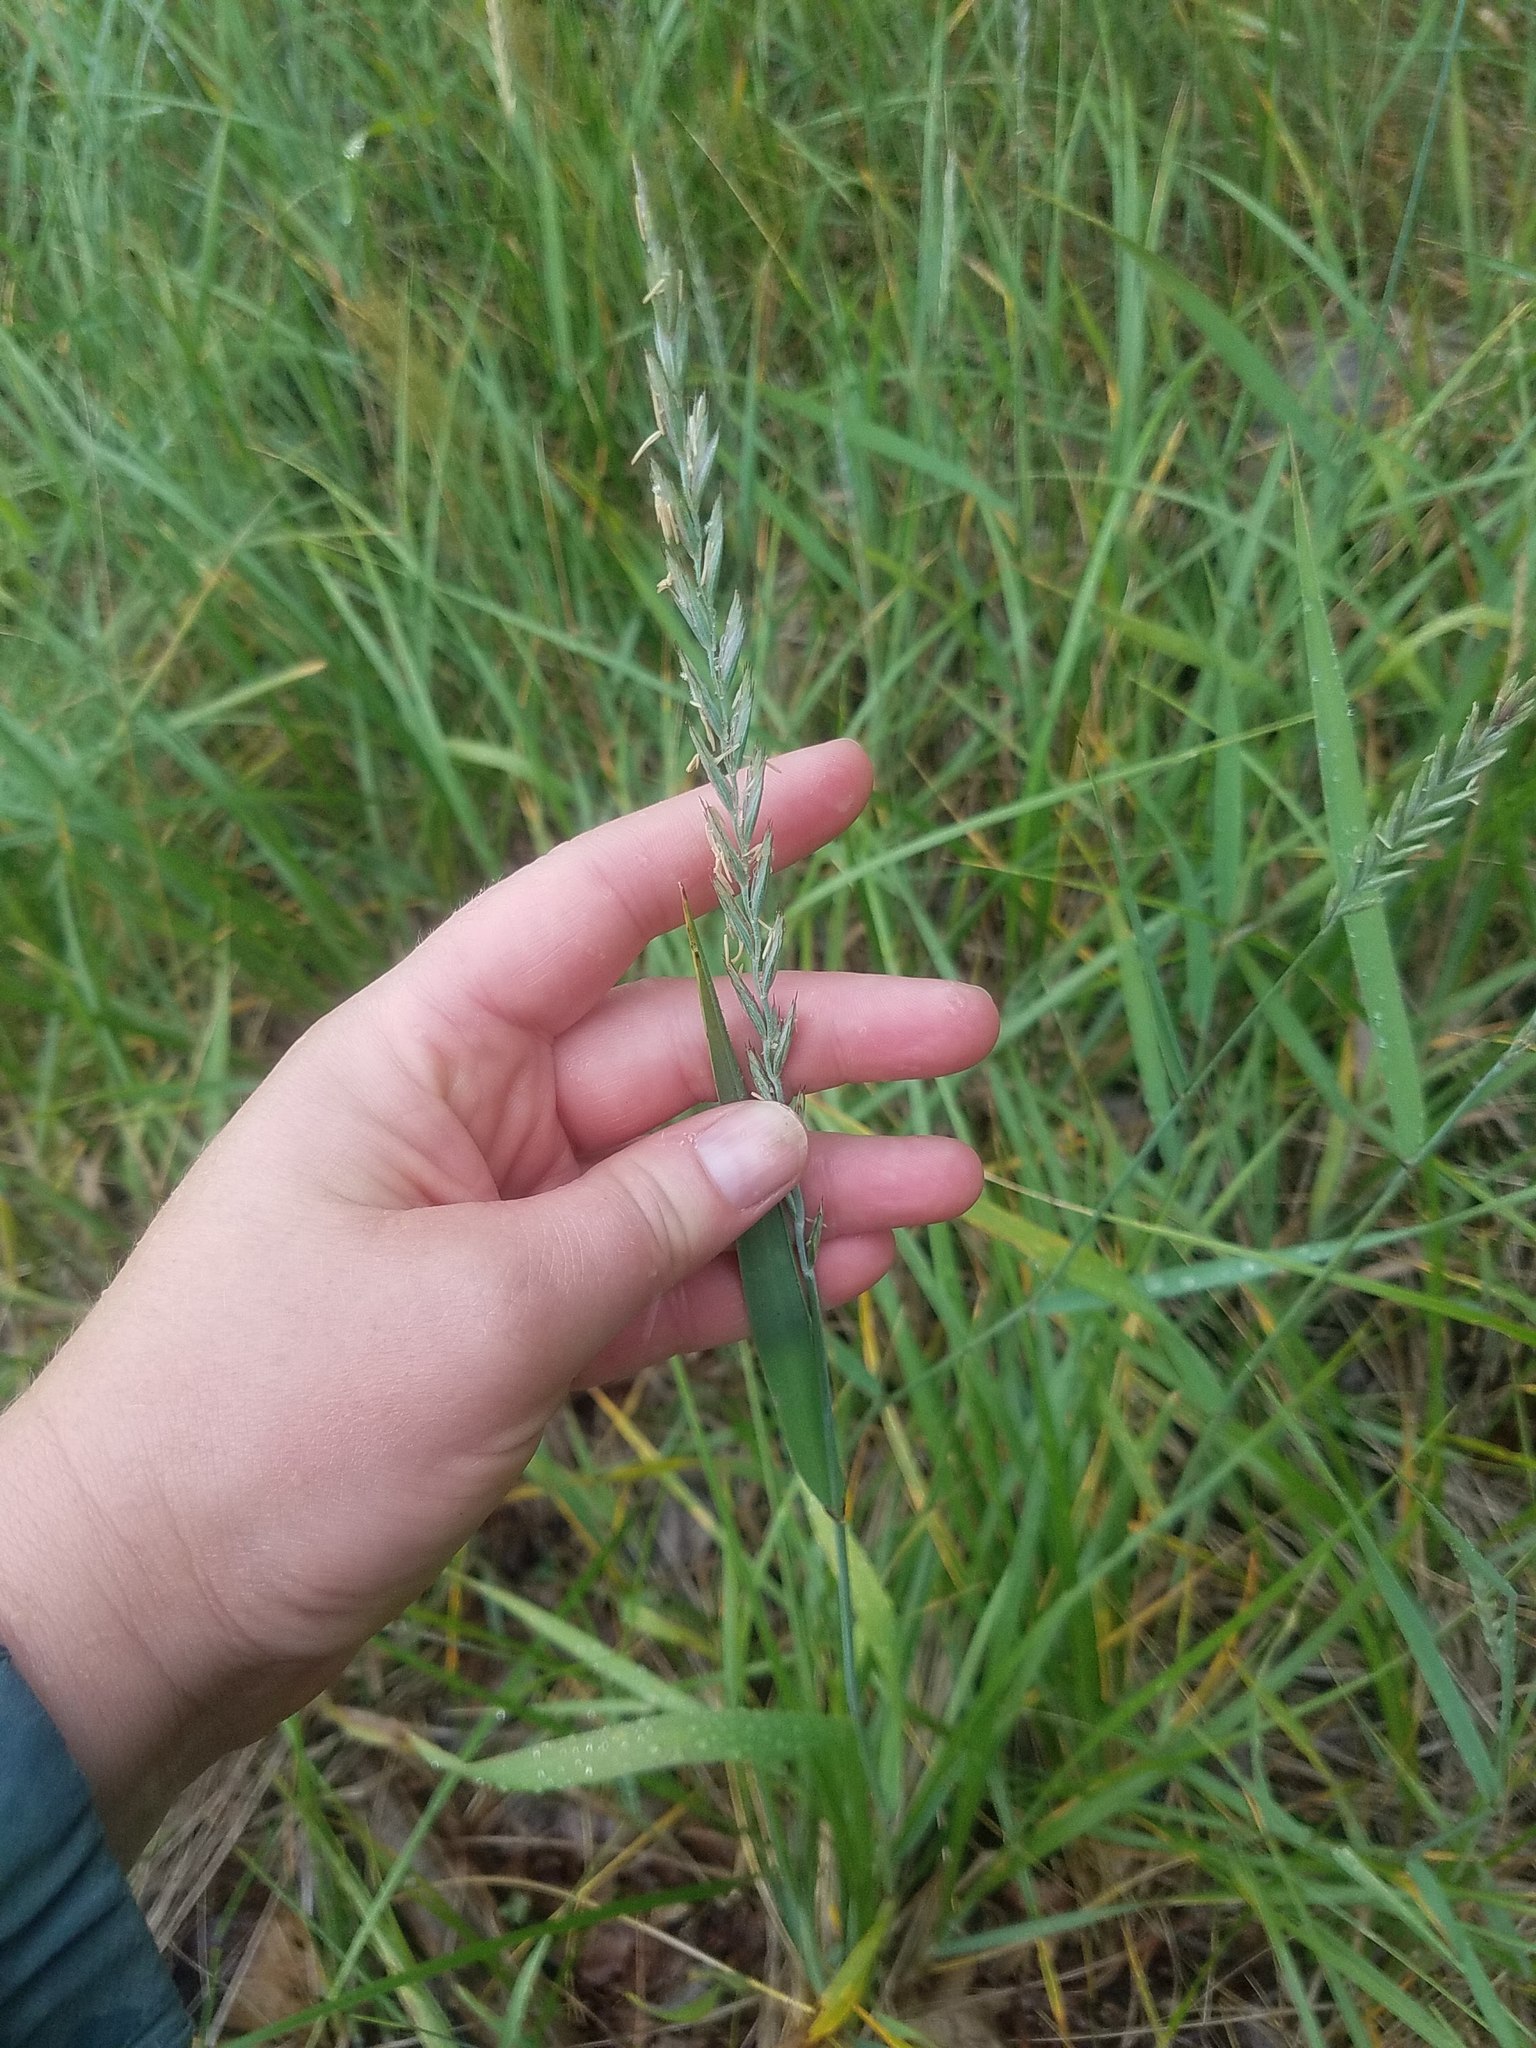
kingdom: Plantae
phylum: Tracheophyta
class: Liliopsida
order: Poales
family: Poaceae
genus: Elymus
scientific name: Elymus repens
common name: Quackgrass
